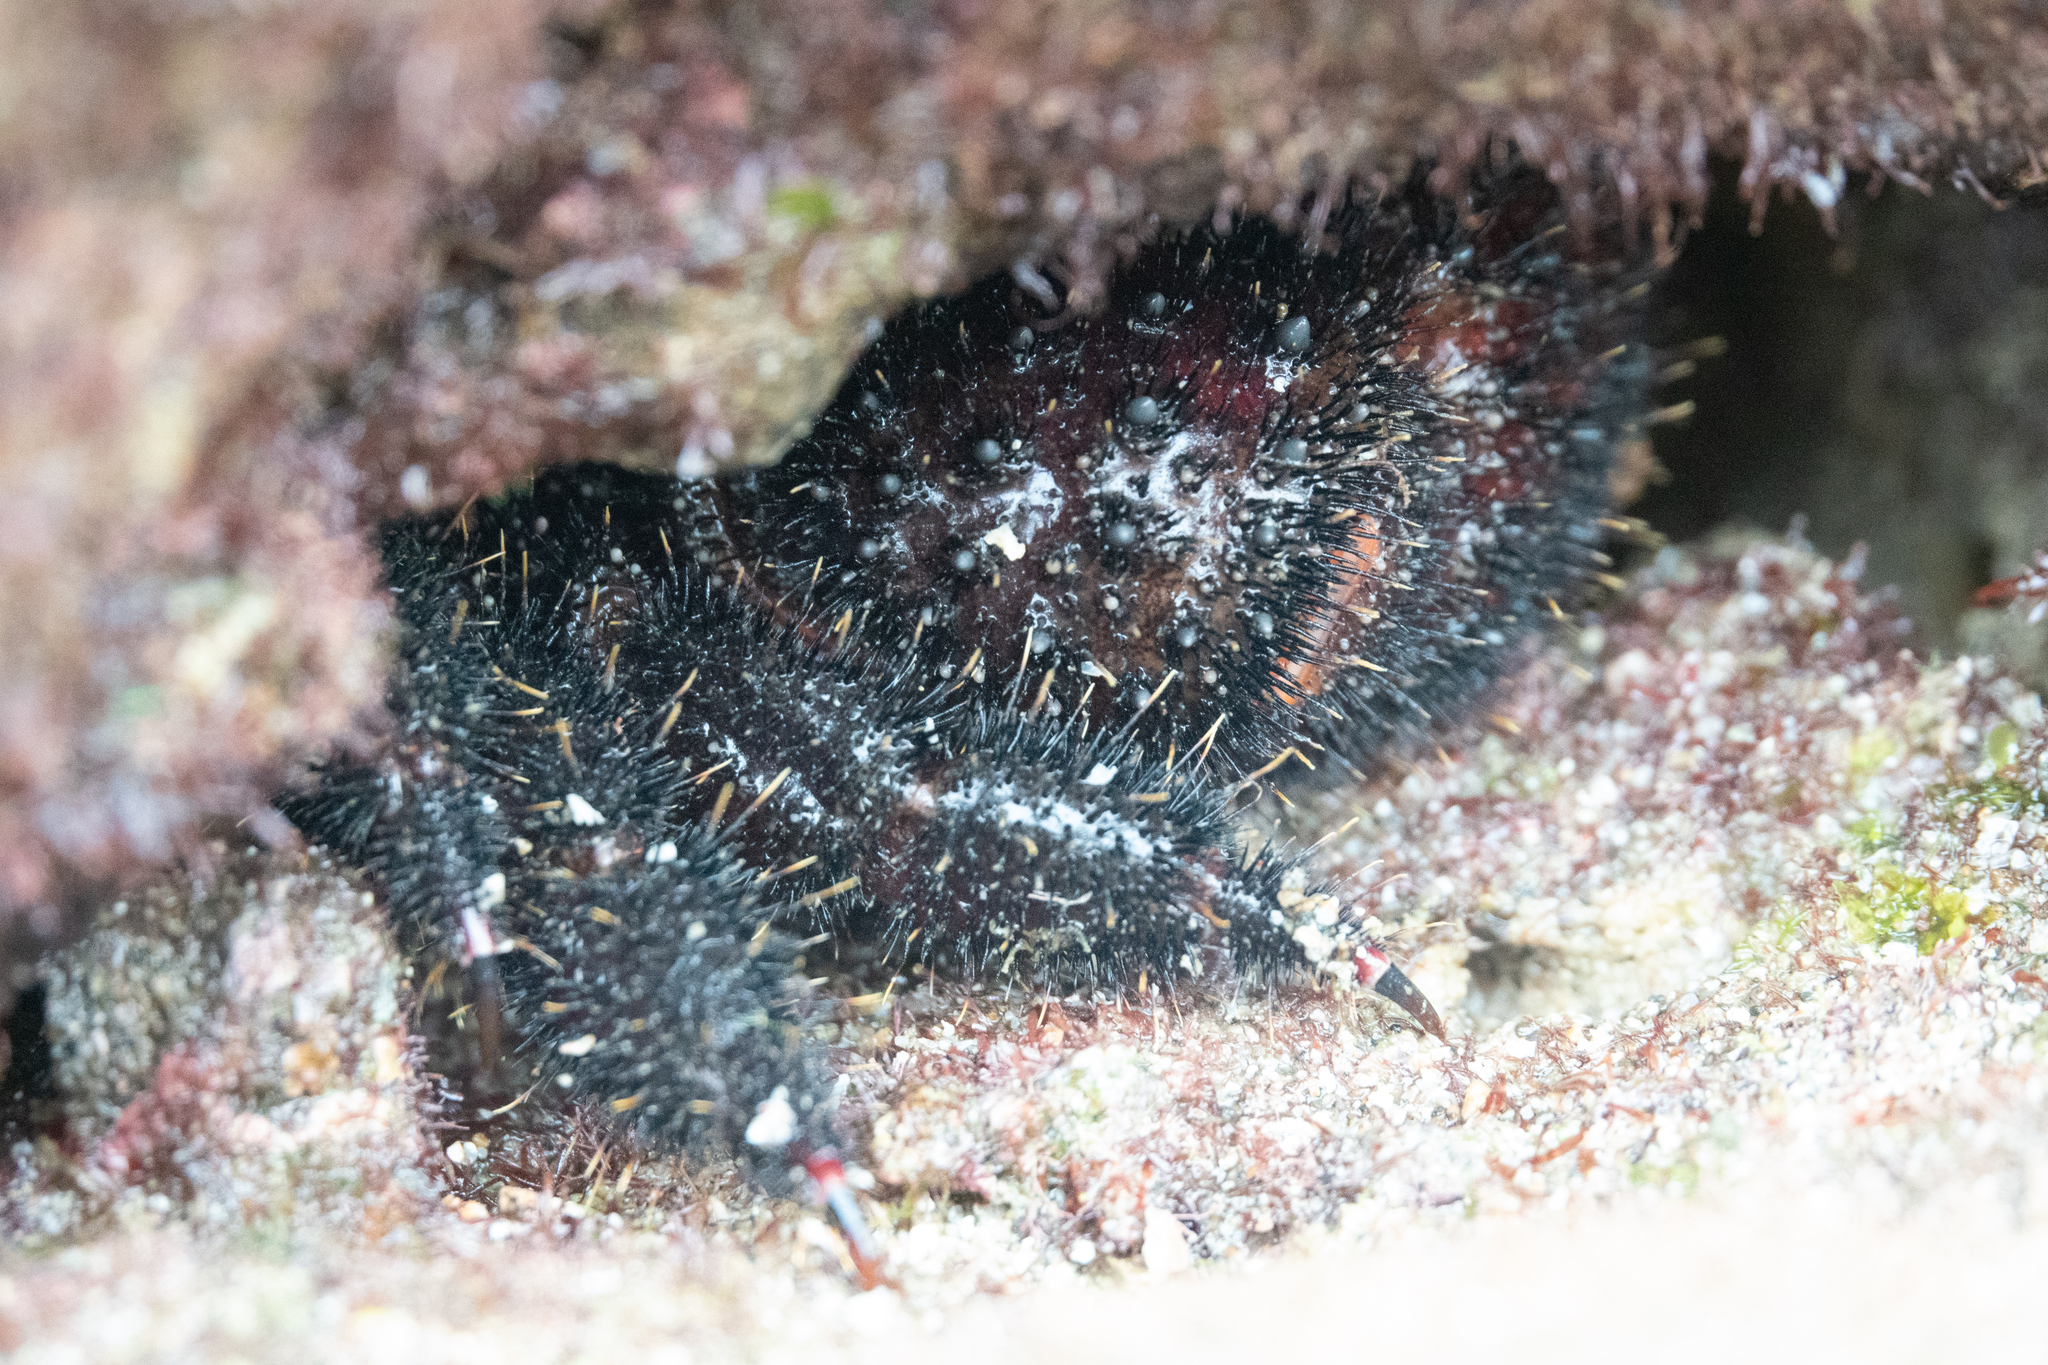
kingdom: Animalia
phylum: Arthropoda
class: Malacostraca
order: Decapoda
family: Eriphiidae
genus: Eriphides
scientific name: Eriphides hispida
